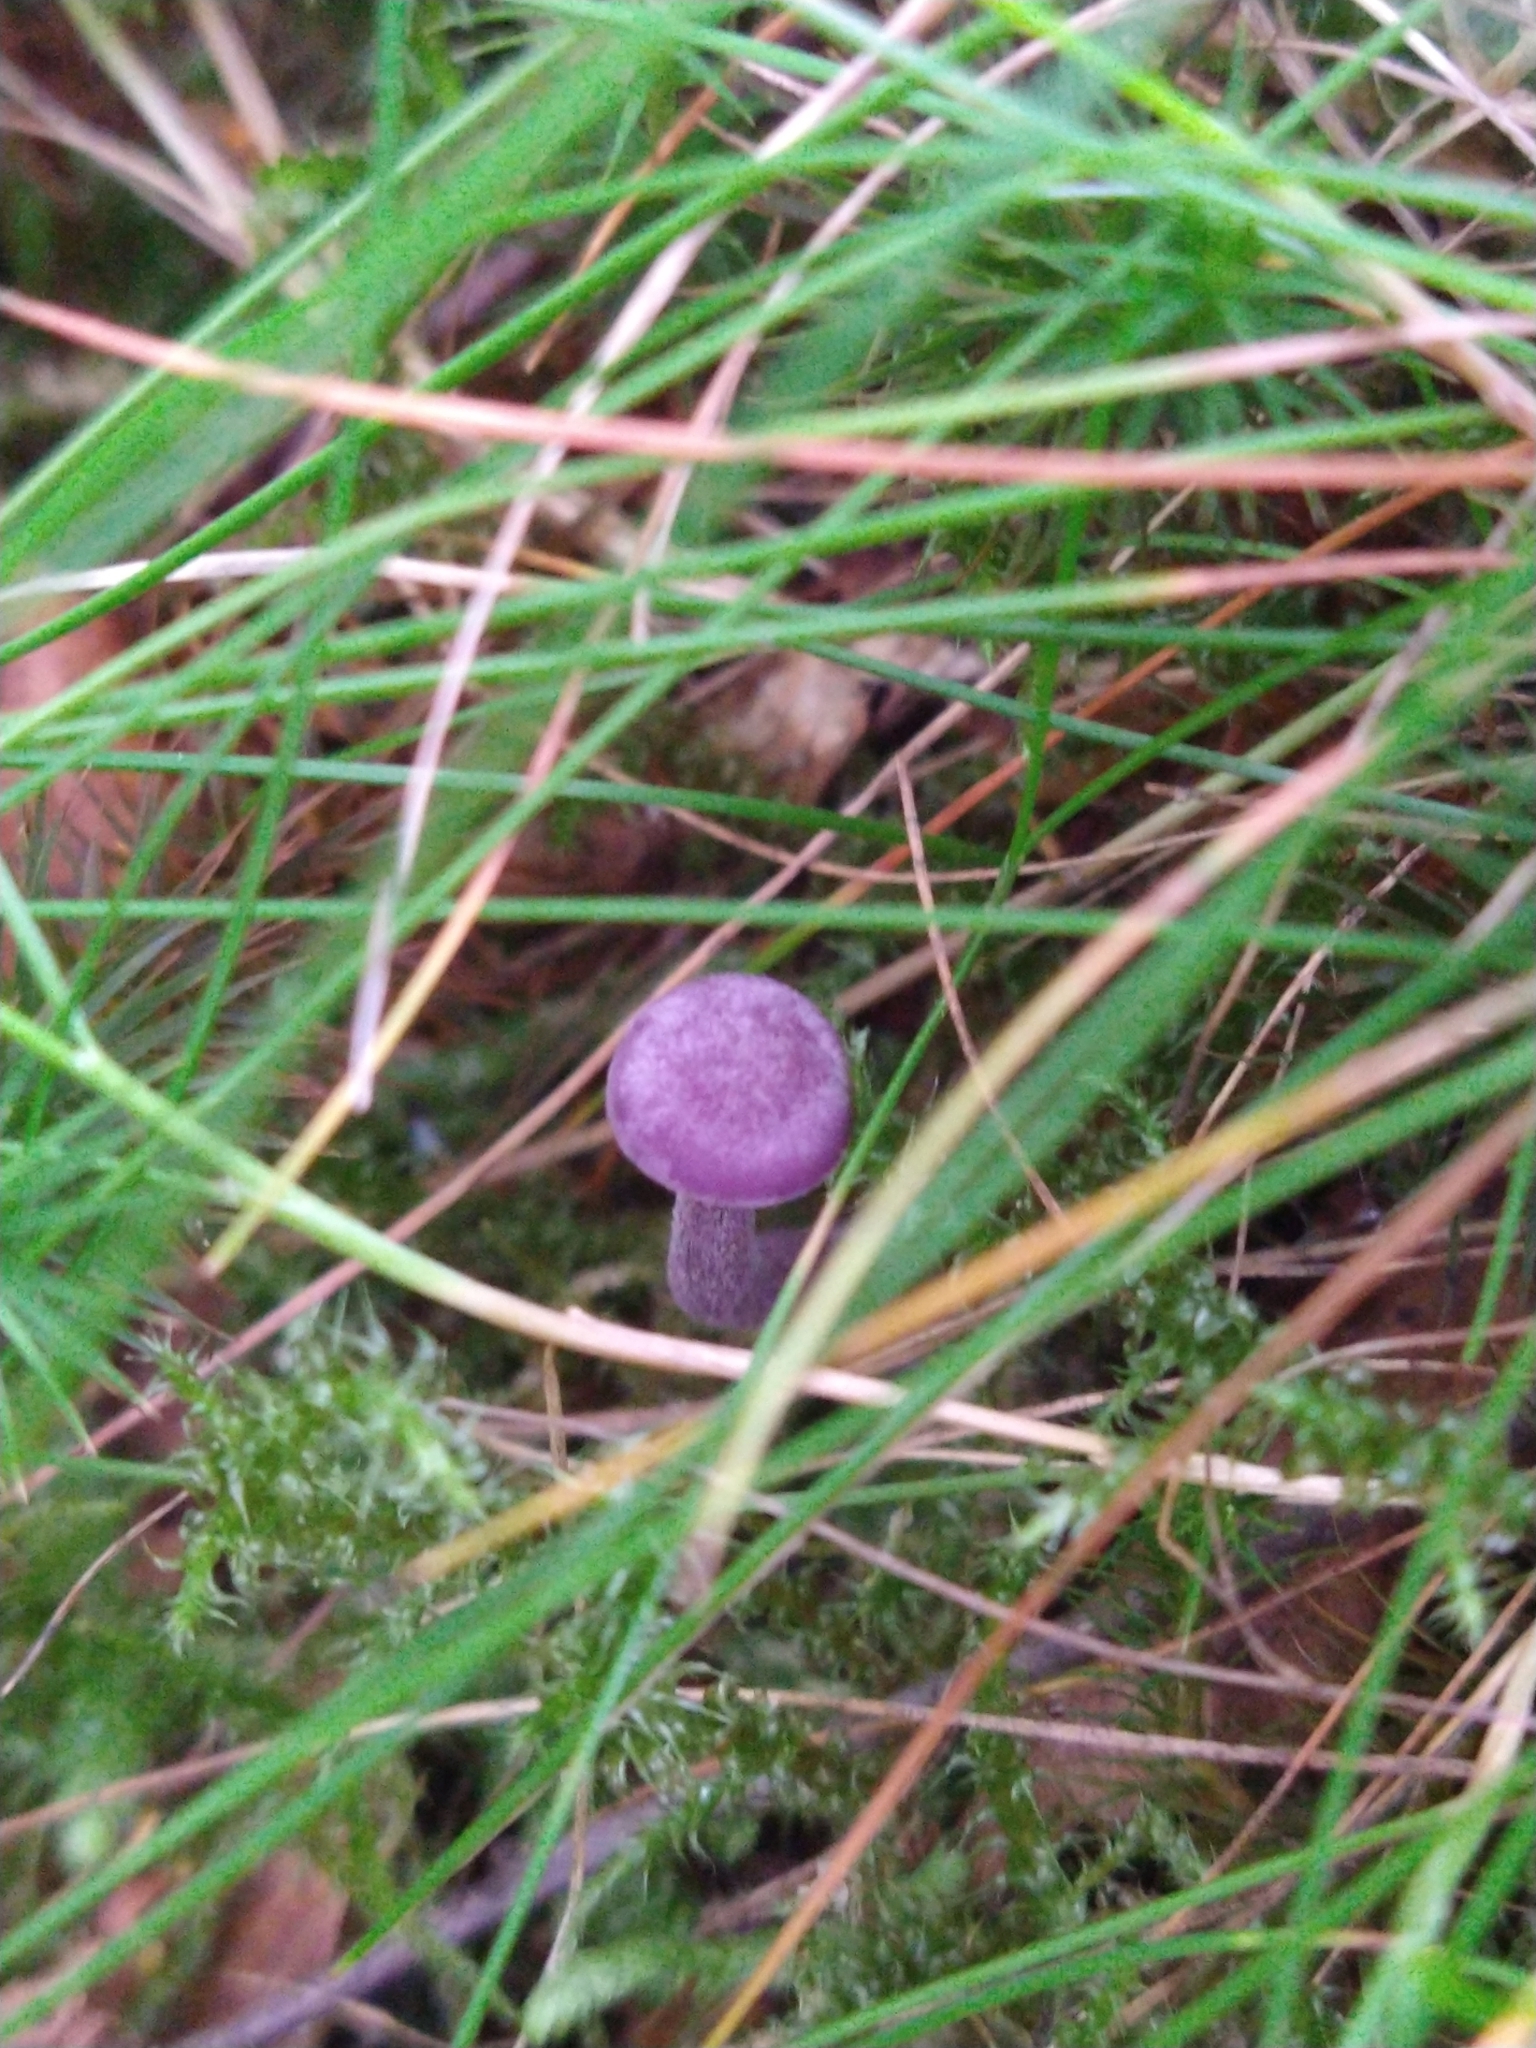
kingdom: Fungi
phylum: Basidiomycota
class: Agaricomycetes
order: Agaricales
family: Hydnangiaceae
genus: Laccaria
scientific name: Laccaria amethystina
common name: Amethyst deceiver
